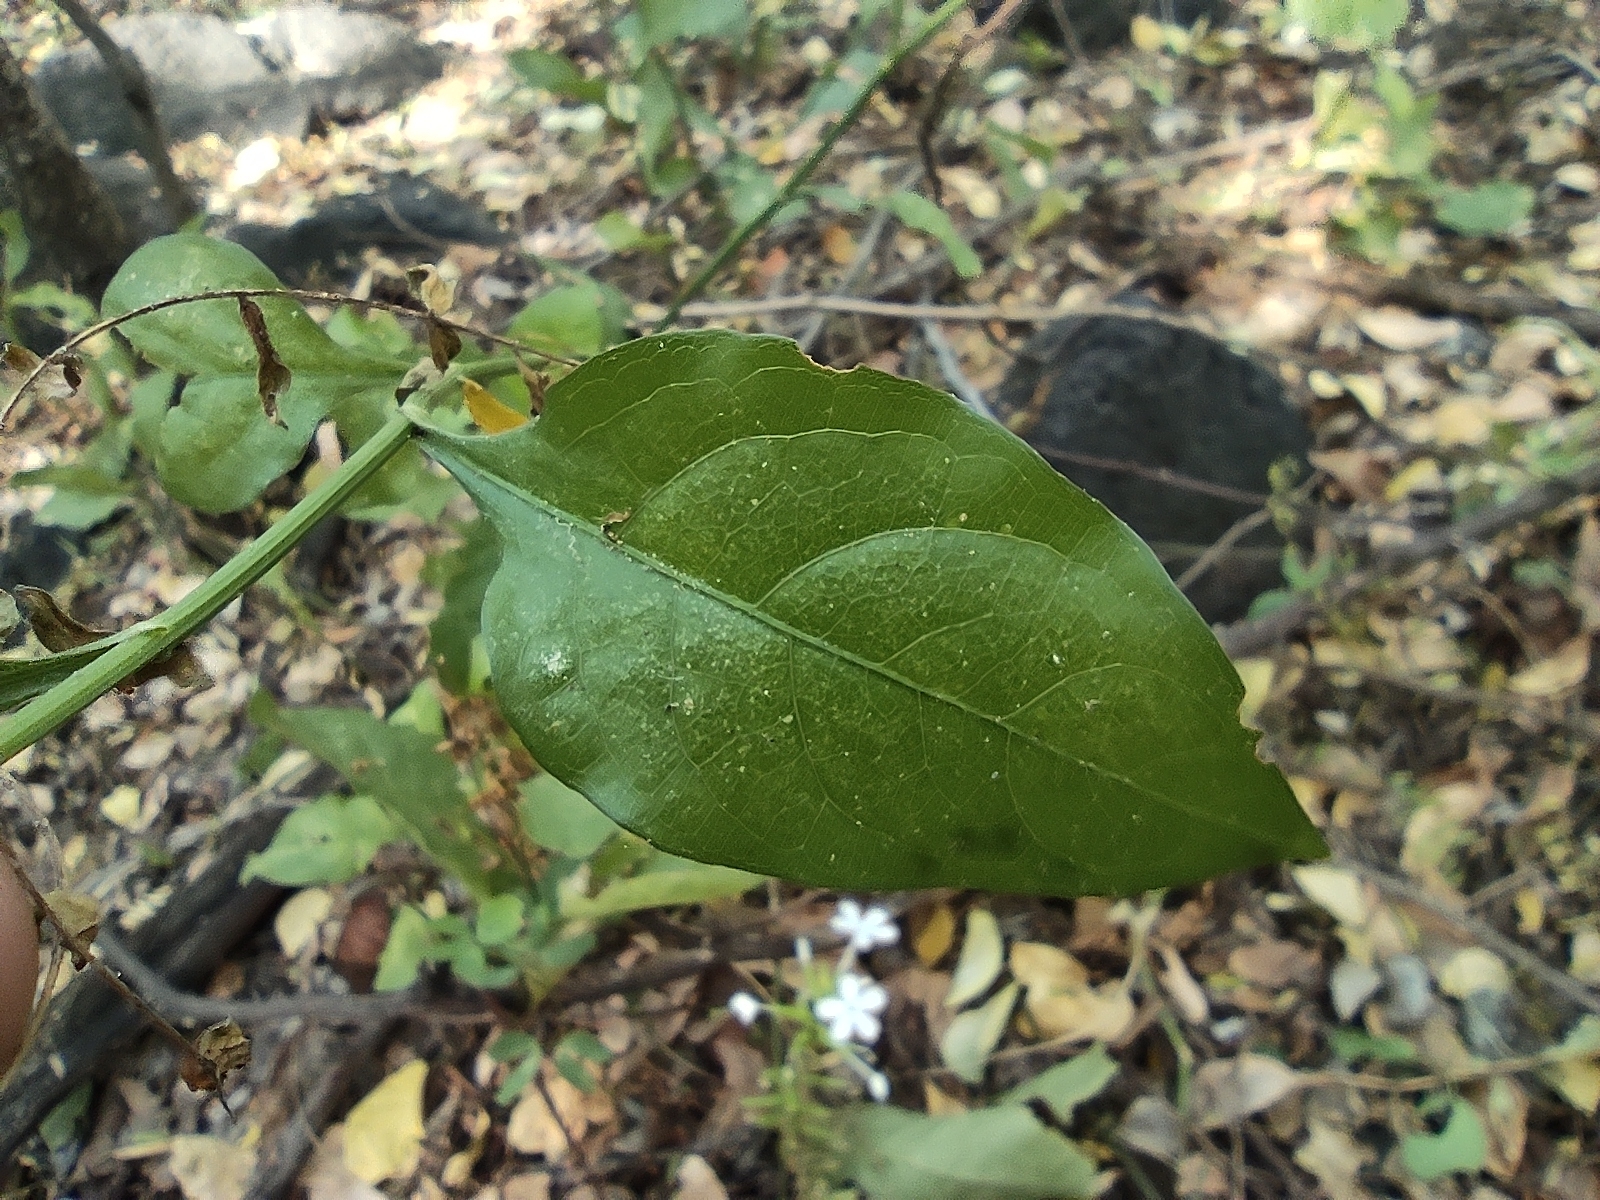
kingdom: Plantae
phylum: Tracheophyta
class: Magnoliopsida
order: Caryophyllales
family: Plumbaginaceae
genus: Plumbago
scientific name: Plumbago zeylanica
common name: Doctorbush
